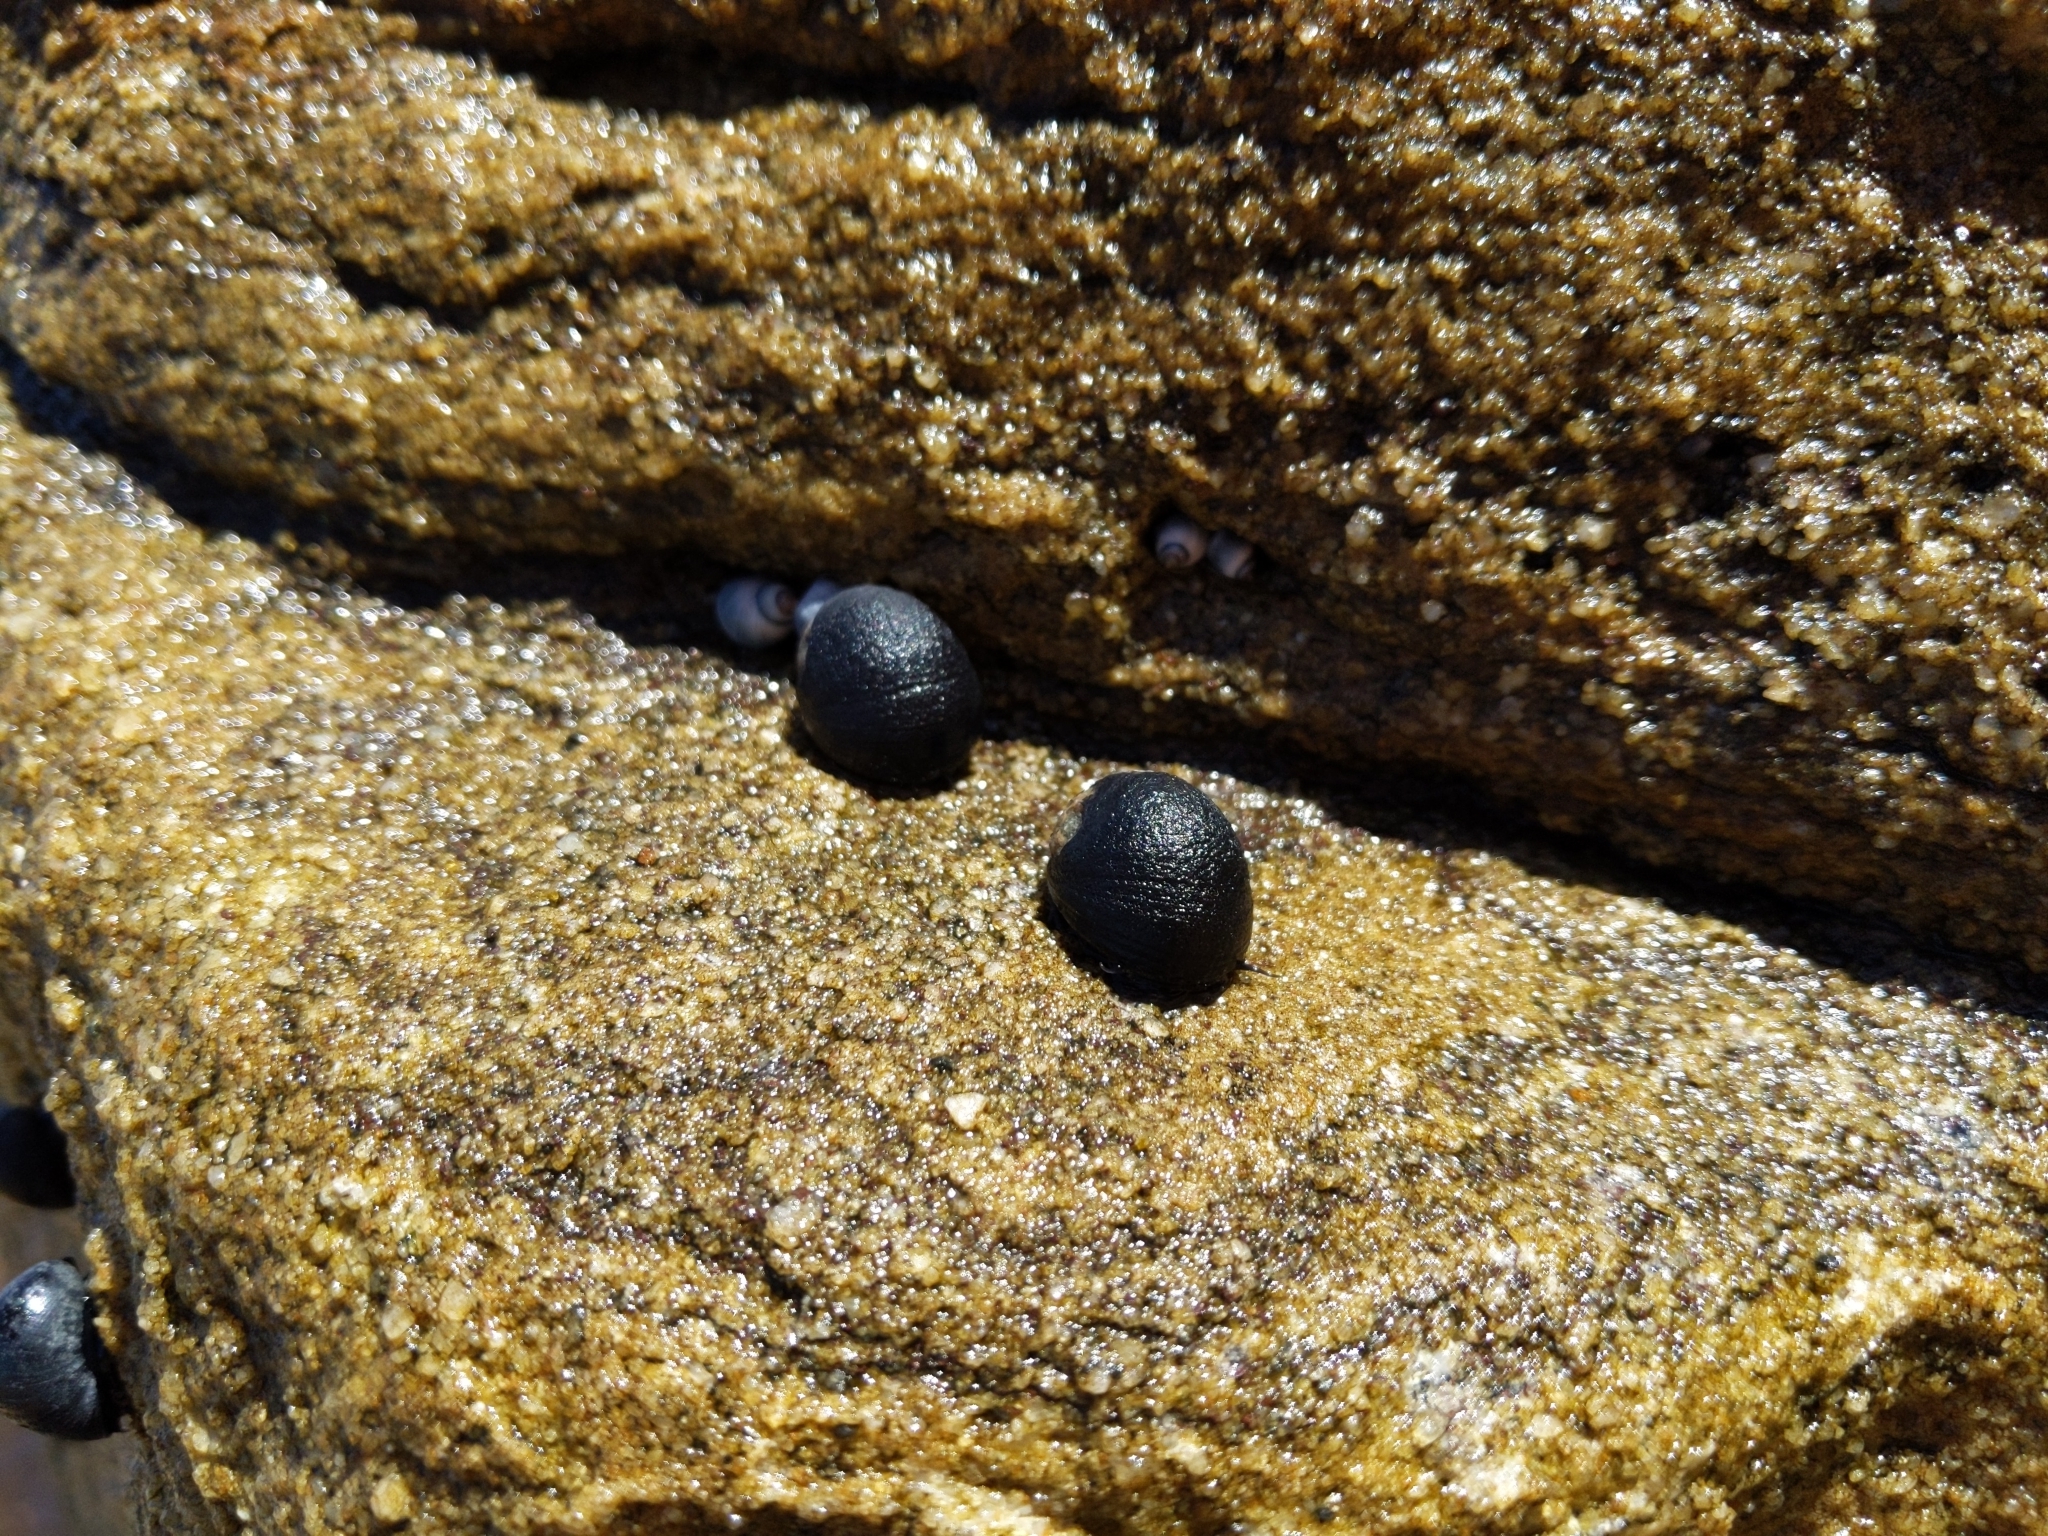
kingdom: Animalia
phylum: Mollusca
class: Gastropoda
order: Cycloneritida
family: Neritidae
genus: Nerita
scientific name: Nerita melanotragus
